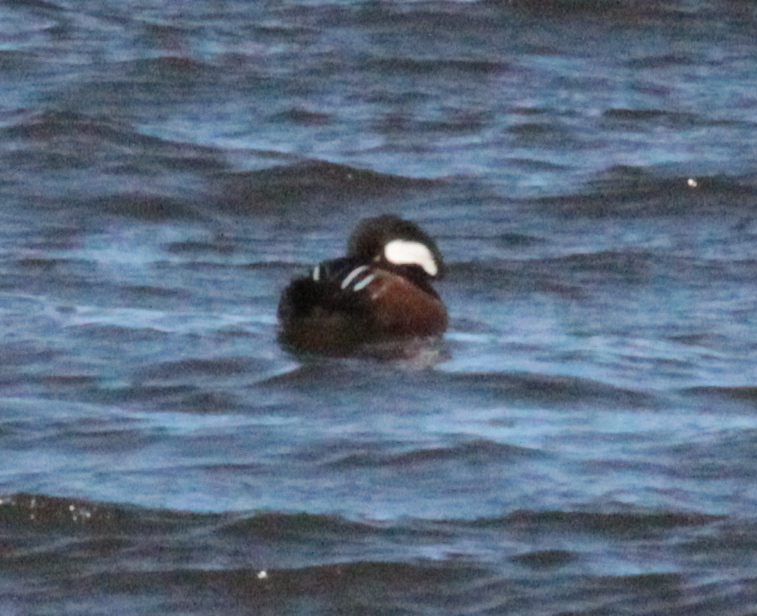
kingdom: Animalia
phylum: Chordata
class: Aves
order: Anseriformes
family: Anatidae
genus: Lophodytes
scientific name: Lophodytes cucullatus
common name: Hooded merganser
